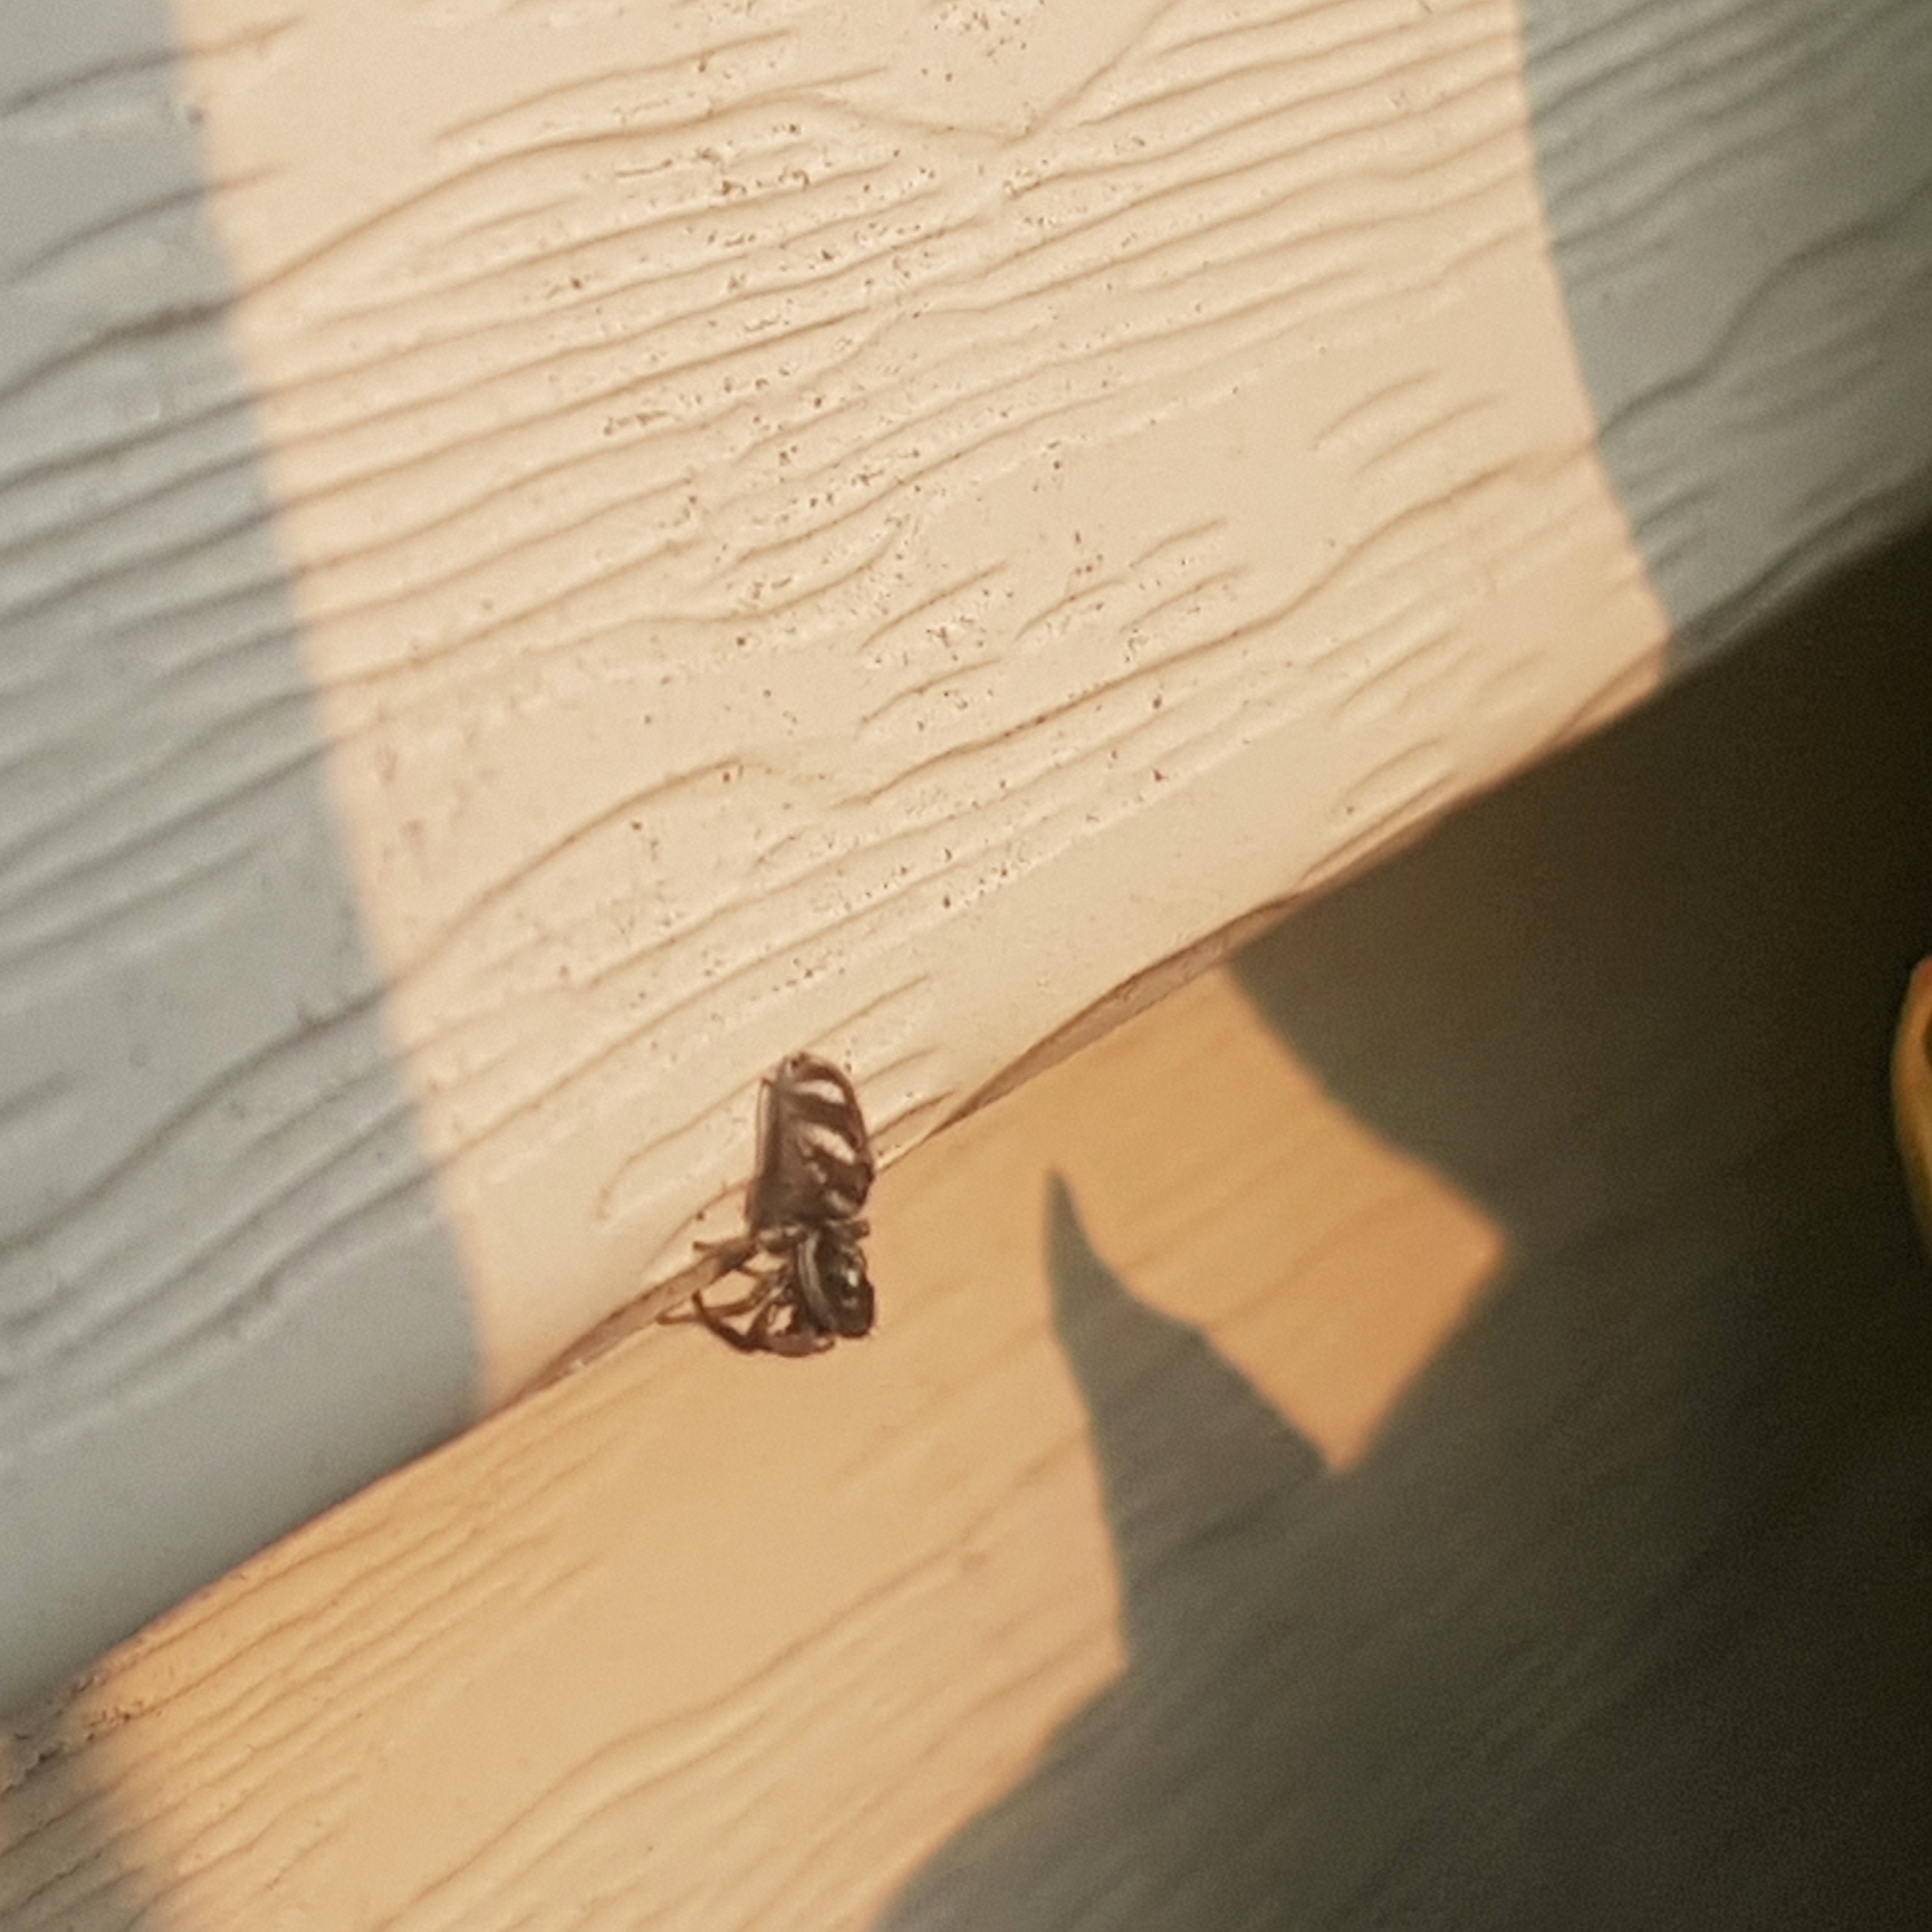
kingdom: Animalia
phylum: Arthropoda
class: Arachnida
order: Araneae
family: Salticidae
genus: Salticus
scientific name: Salticus scenicus
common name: Zebra jumper
